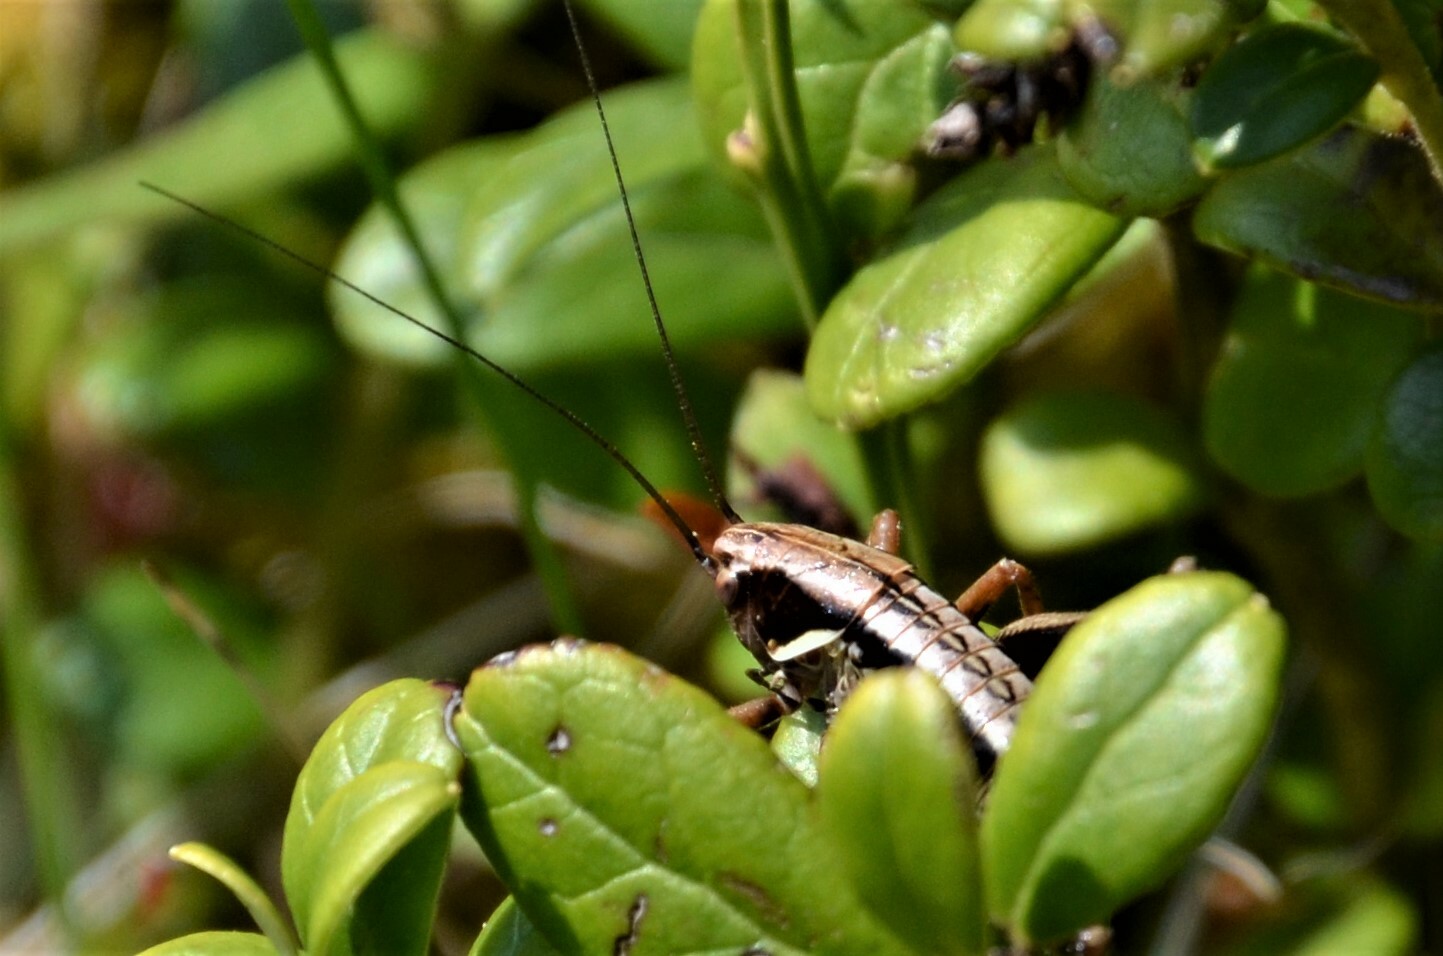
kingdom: Animalia
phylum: Arthropoda
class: Insecta
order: Orthoptera
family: Tettigoniidae
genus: Metrioptera
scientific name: Metrioptera brachyptera
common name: Bog bush-cricket
